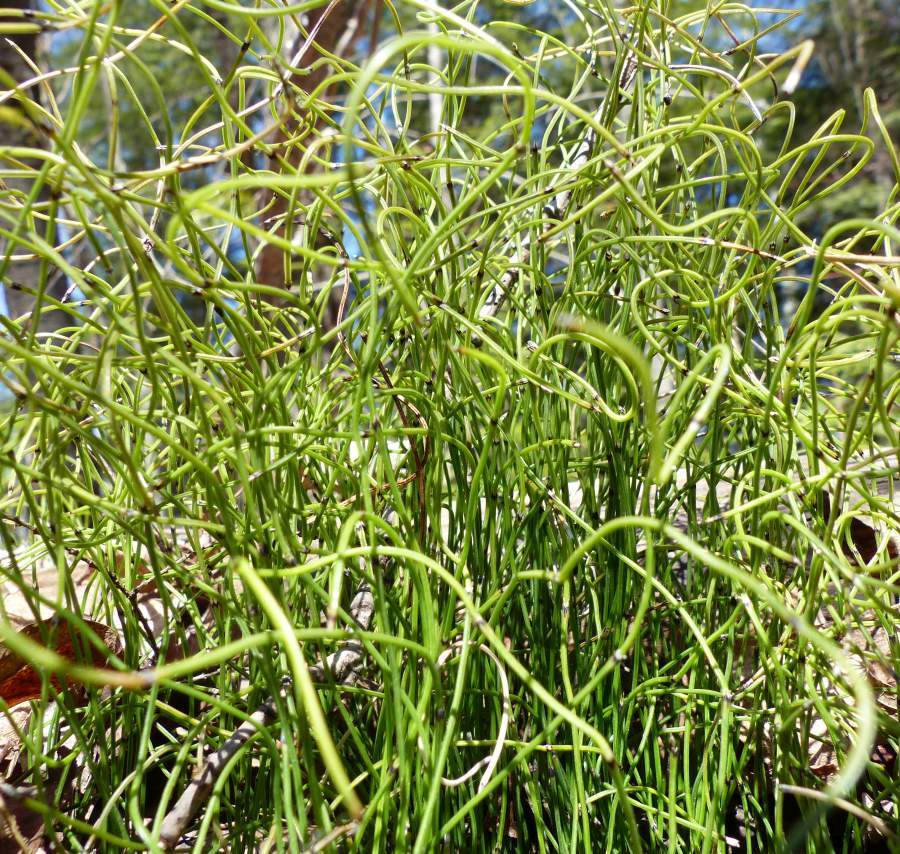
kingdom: Plantae
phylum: Tracheophyta
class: Polypodiopsida
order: Equisetales
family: Equisetaceae
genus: Equisetum
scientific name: Equisetum scirpoides
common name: Delicate horsetail
